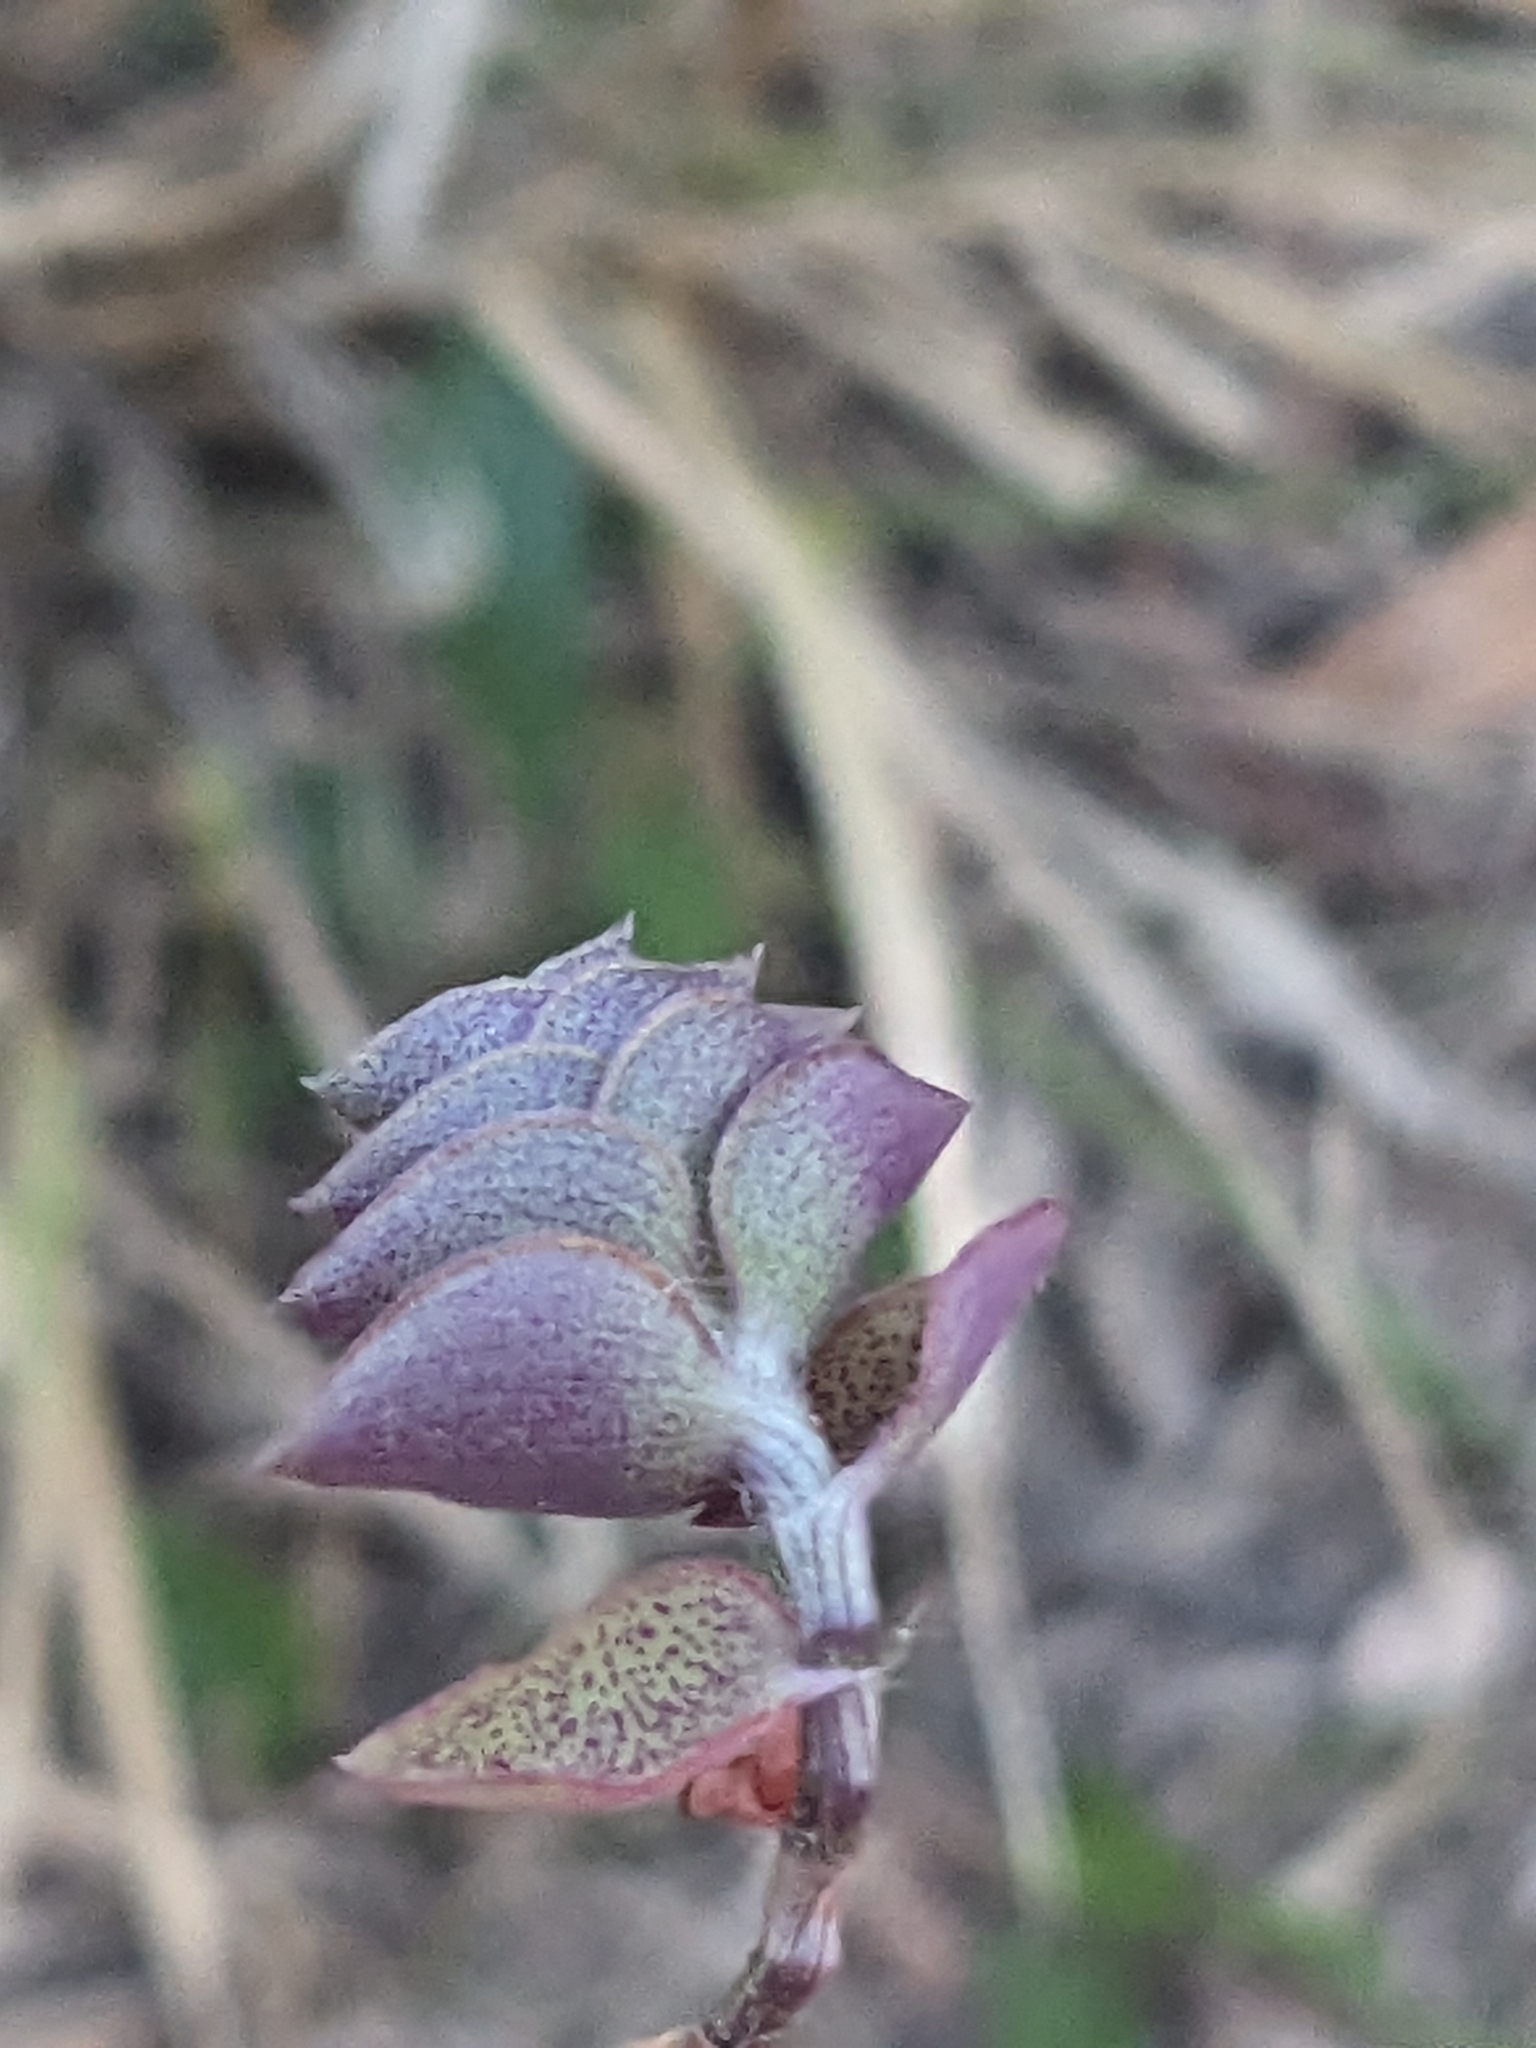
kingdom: Plantae
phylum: Tracheophyta
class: Liliopsida
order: Commelinales
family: Commelinaceae
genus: Callisia
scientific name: Callisia repens
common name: Creeping inchplant
